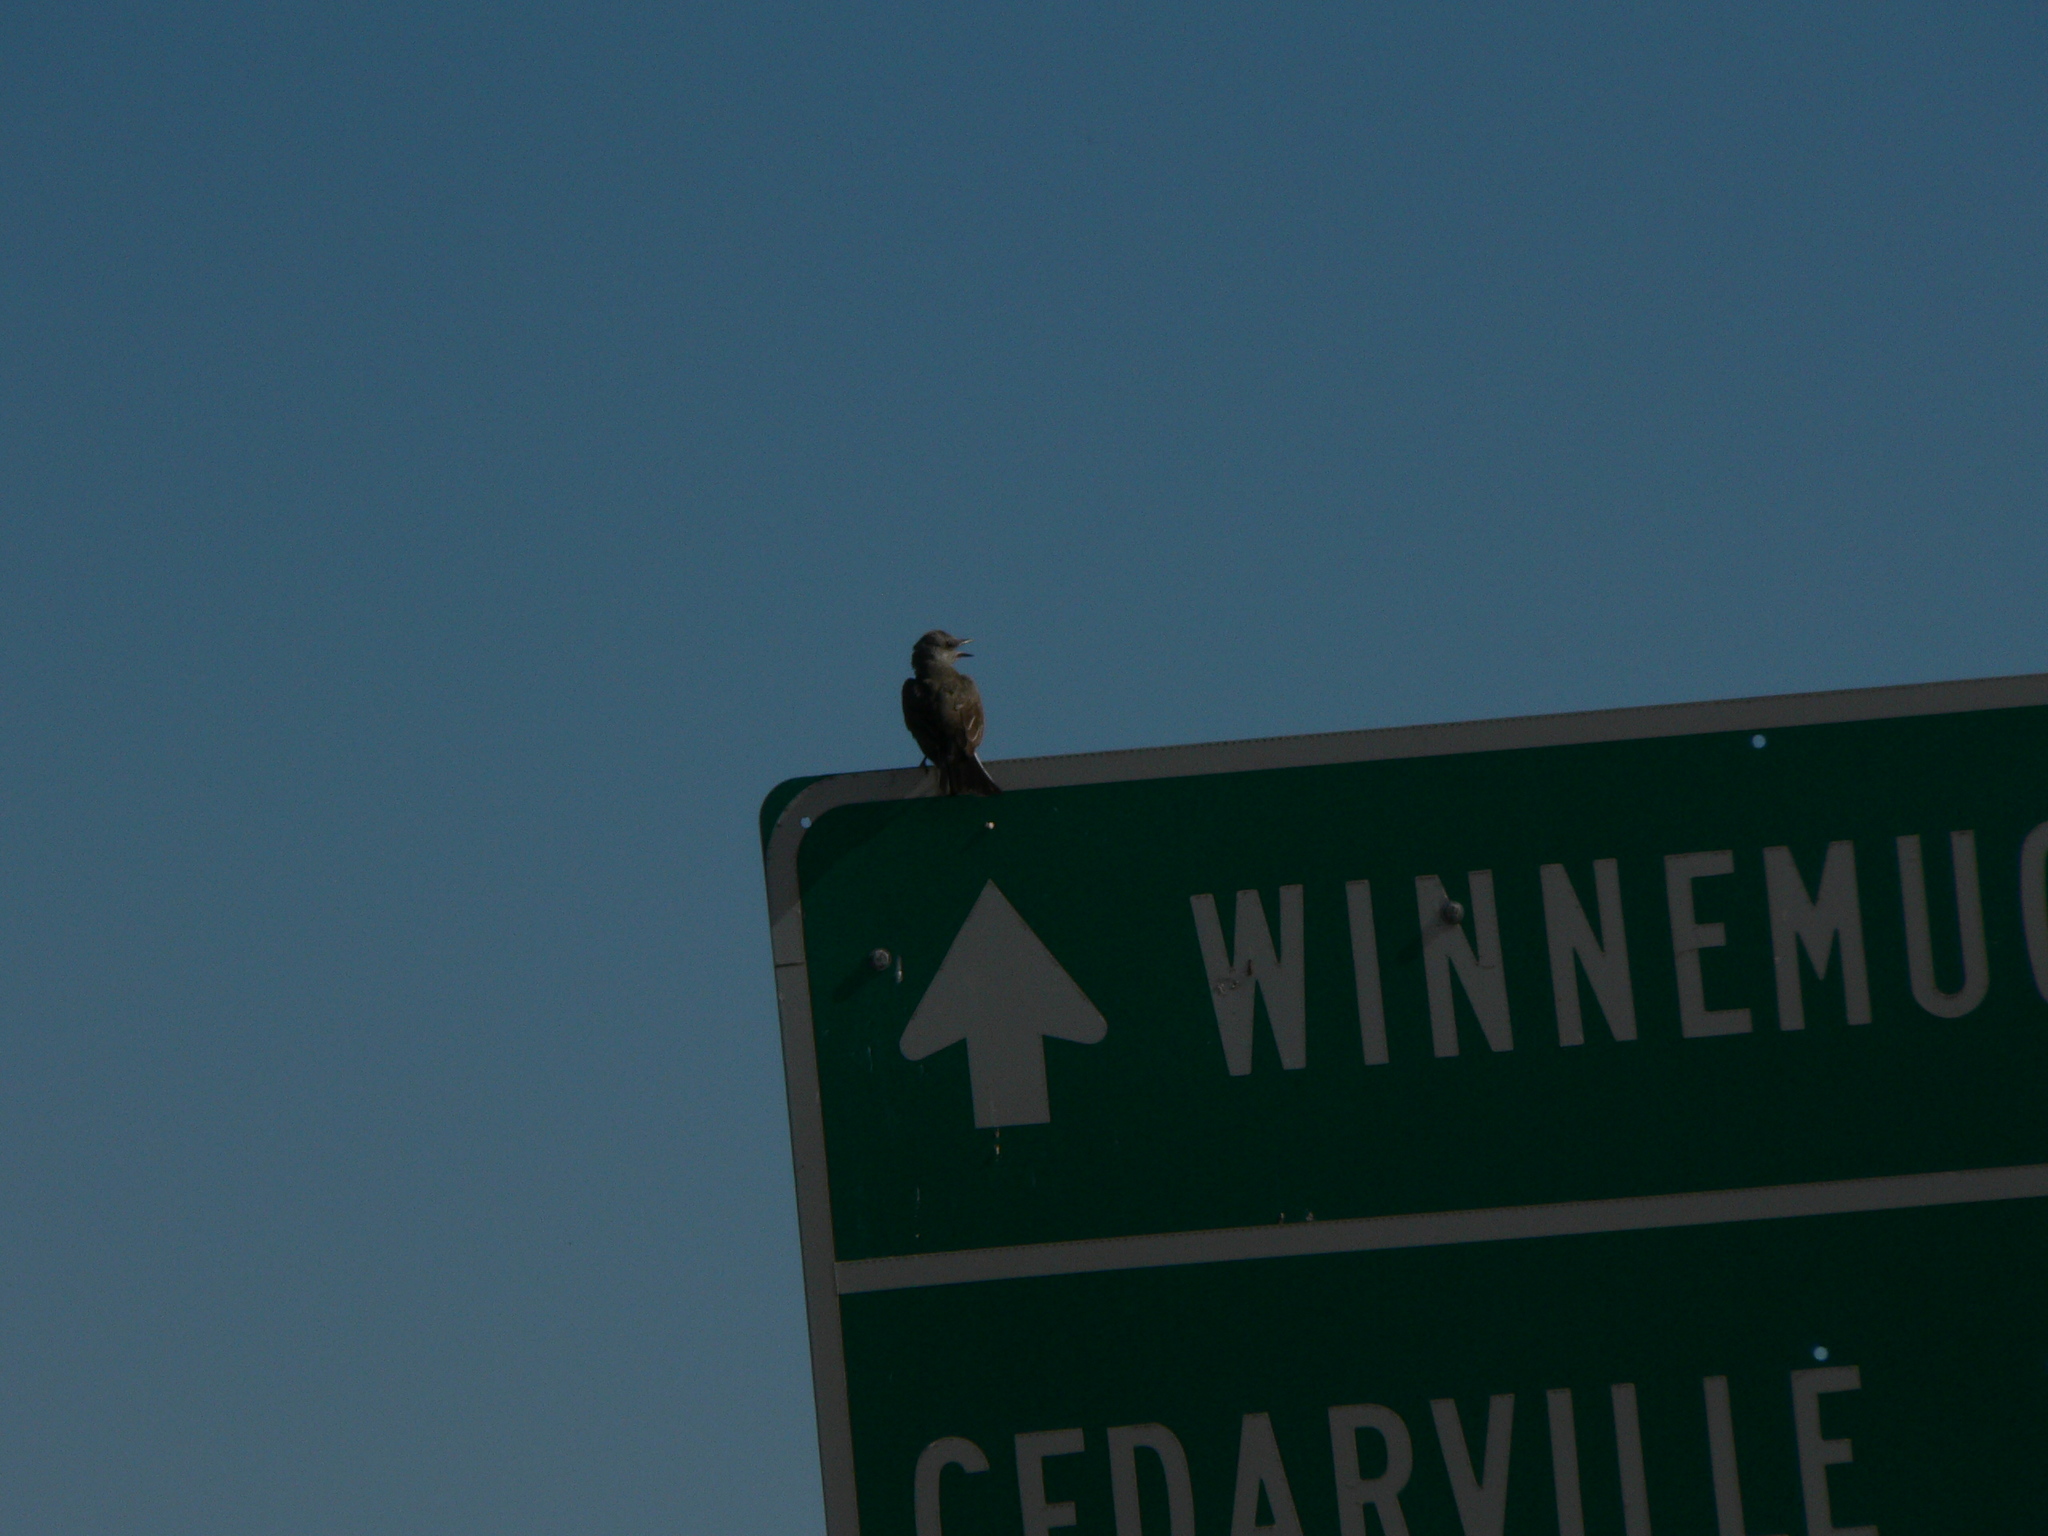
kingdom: Animalia
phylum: Chordata
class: Aves
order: Passeriformes
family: Tyrannidae
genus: Tyrannus
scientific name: Tyrannus verticalis
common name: Western kingbird
